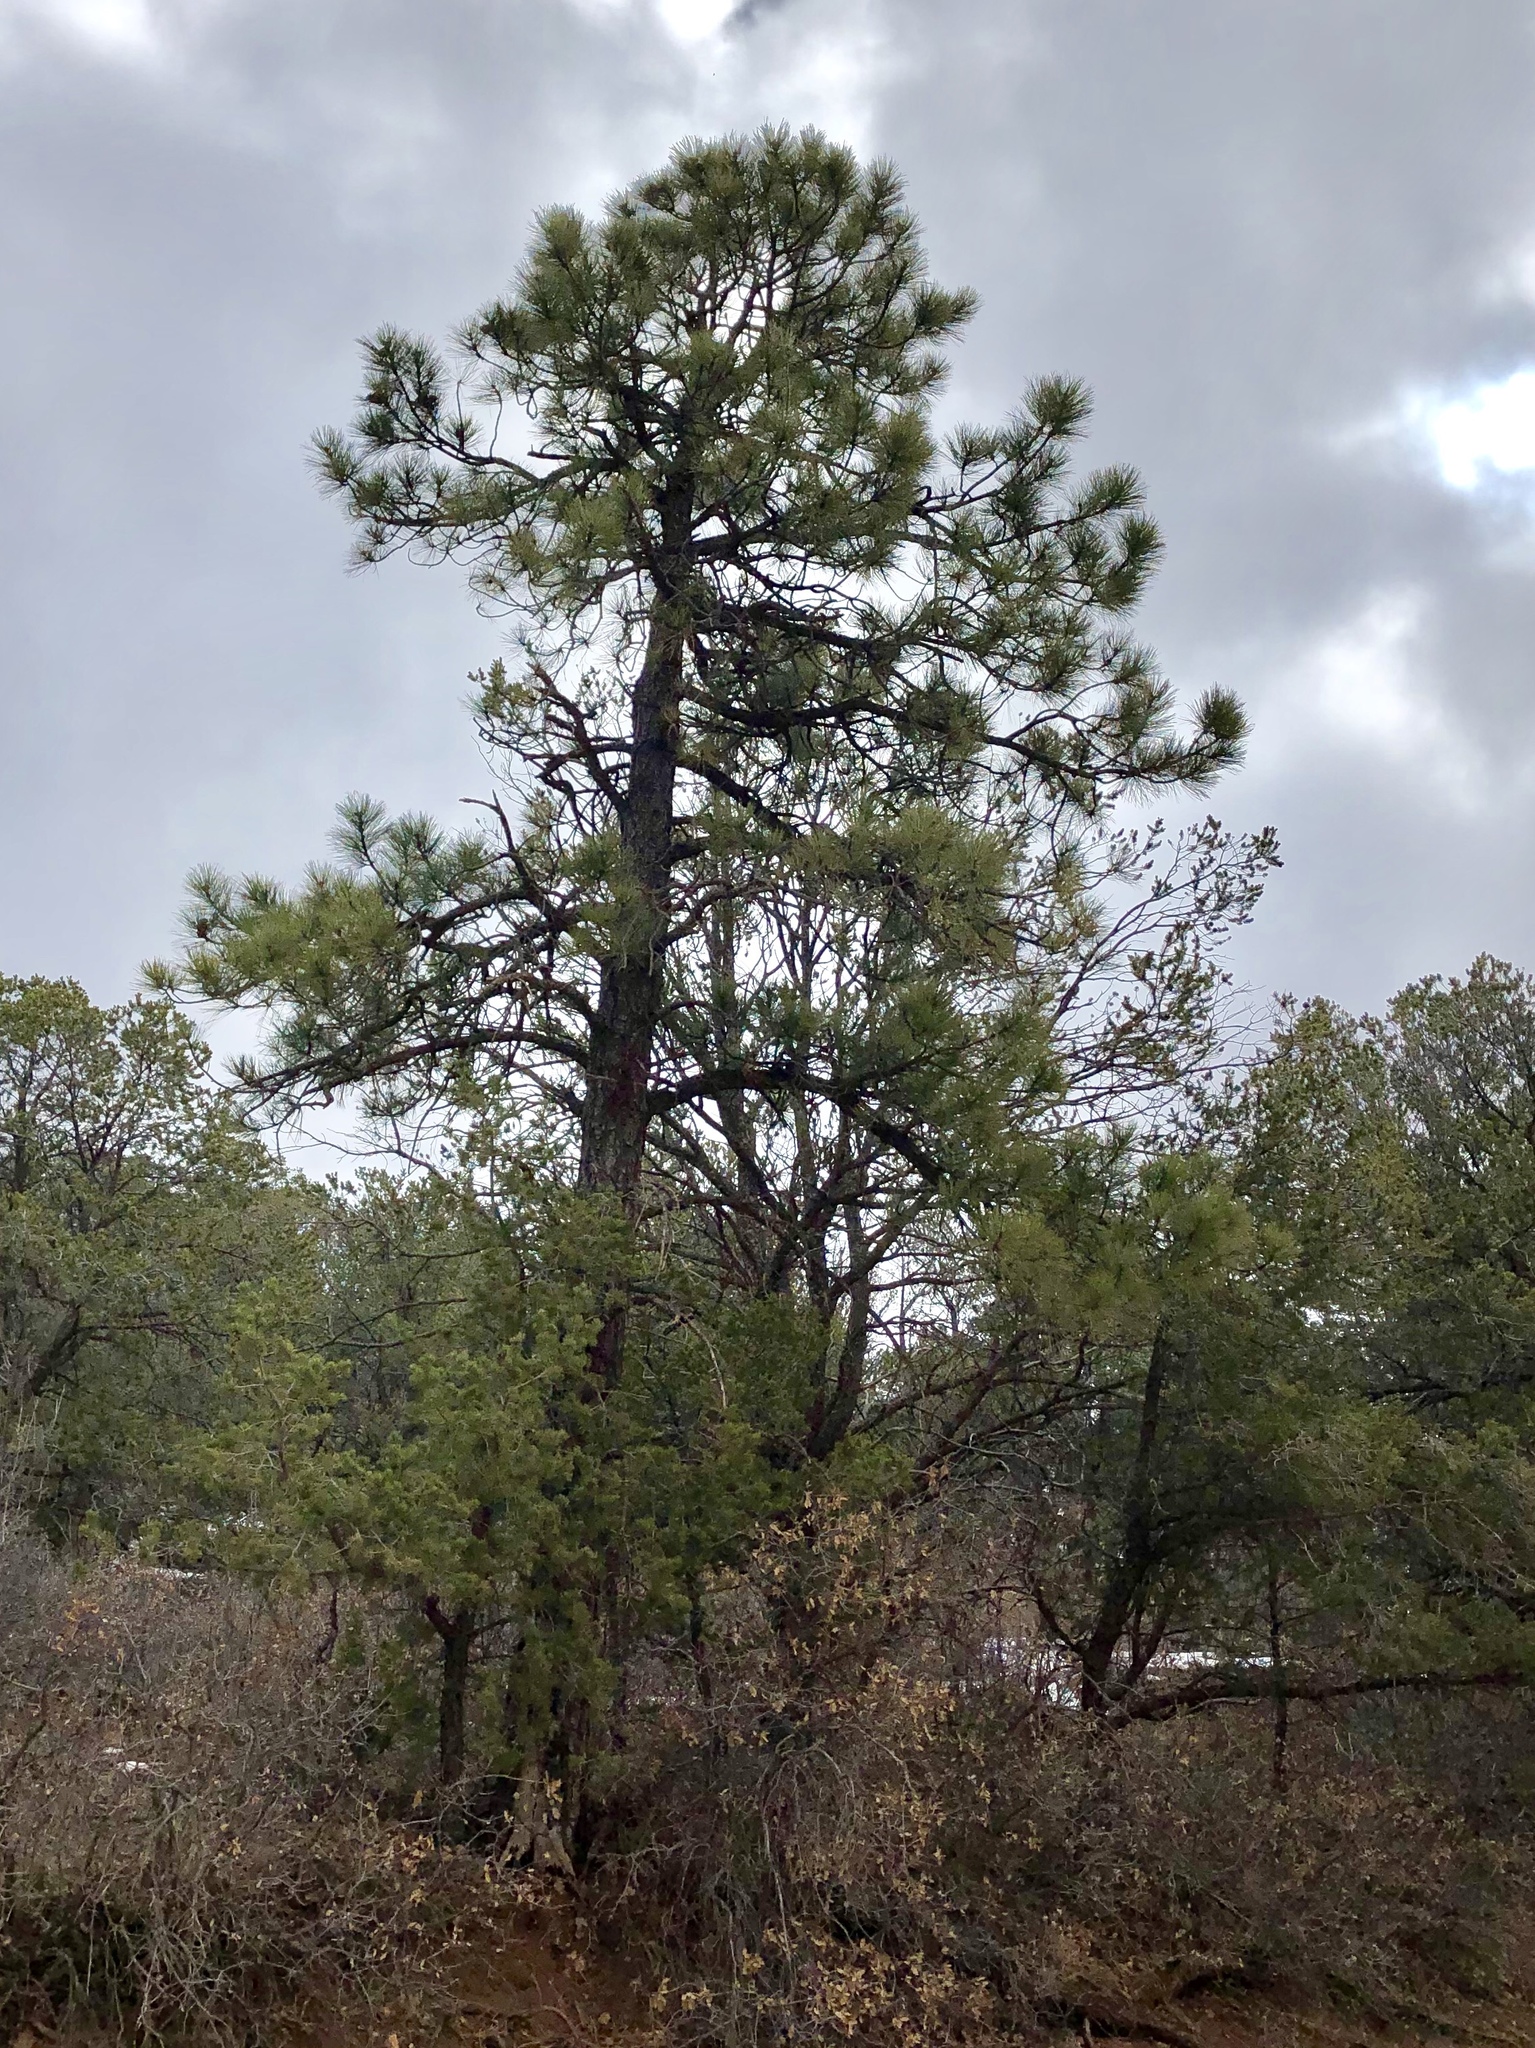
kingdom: Plantae
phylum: Tracheophyta
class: Pinopsida
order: Pinales
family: Pinaceae
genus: Pinus
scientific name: Pinus ponderosa
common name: Western yellow-pine
